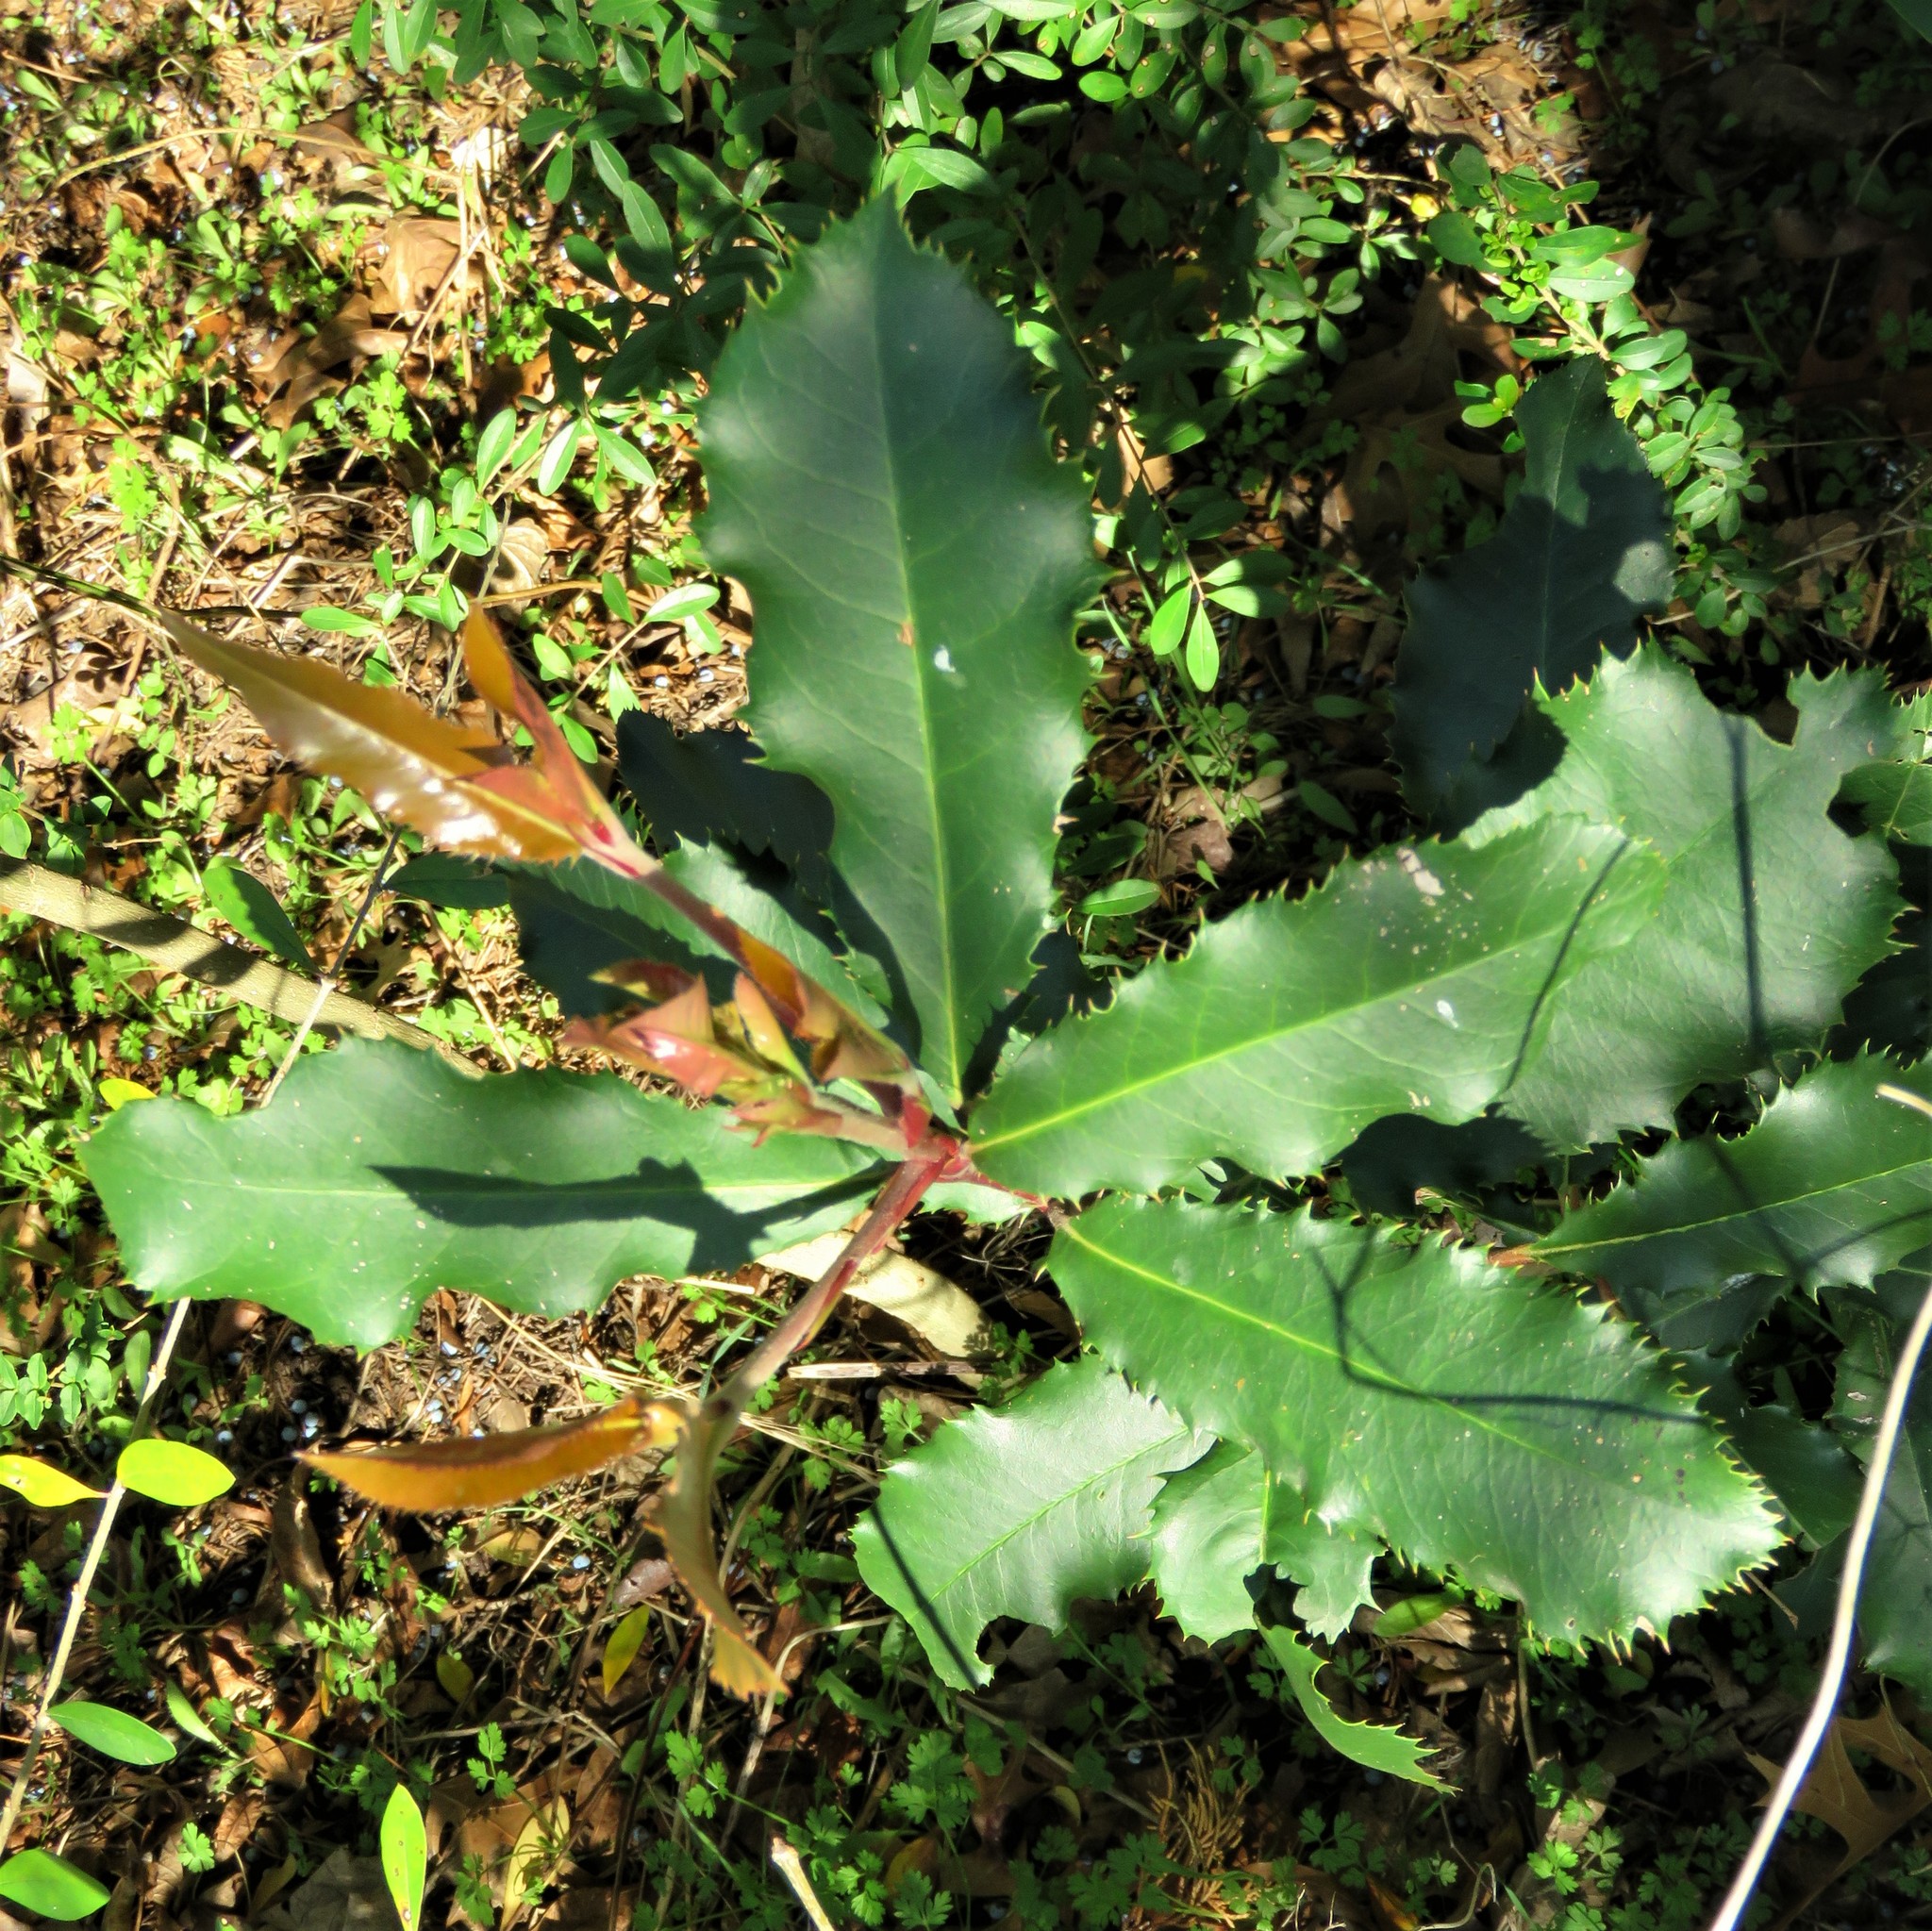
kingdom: Plantae
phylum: Tracheophyta
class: Magnoliopsida
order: Rosales
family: Rosaceae
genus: Photinia
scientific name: Photinia serratifolia
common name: Taiwanese photinia
